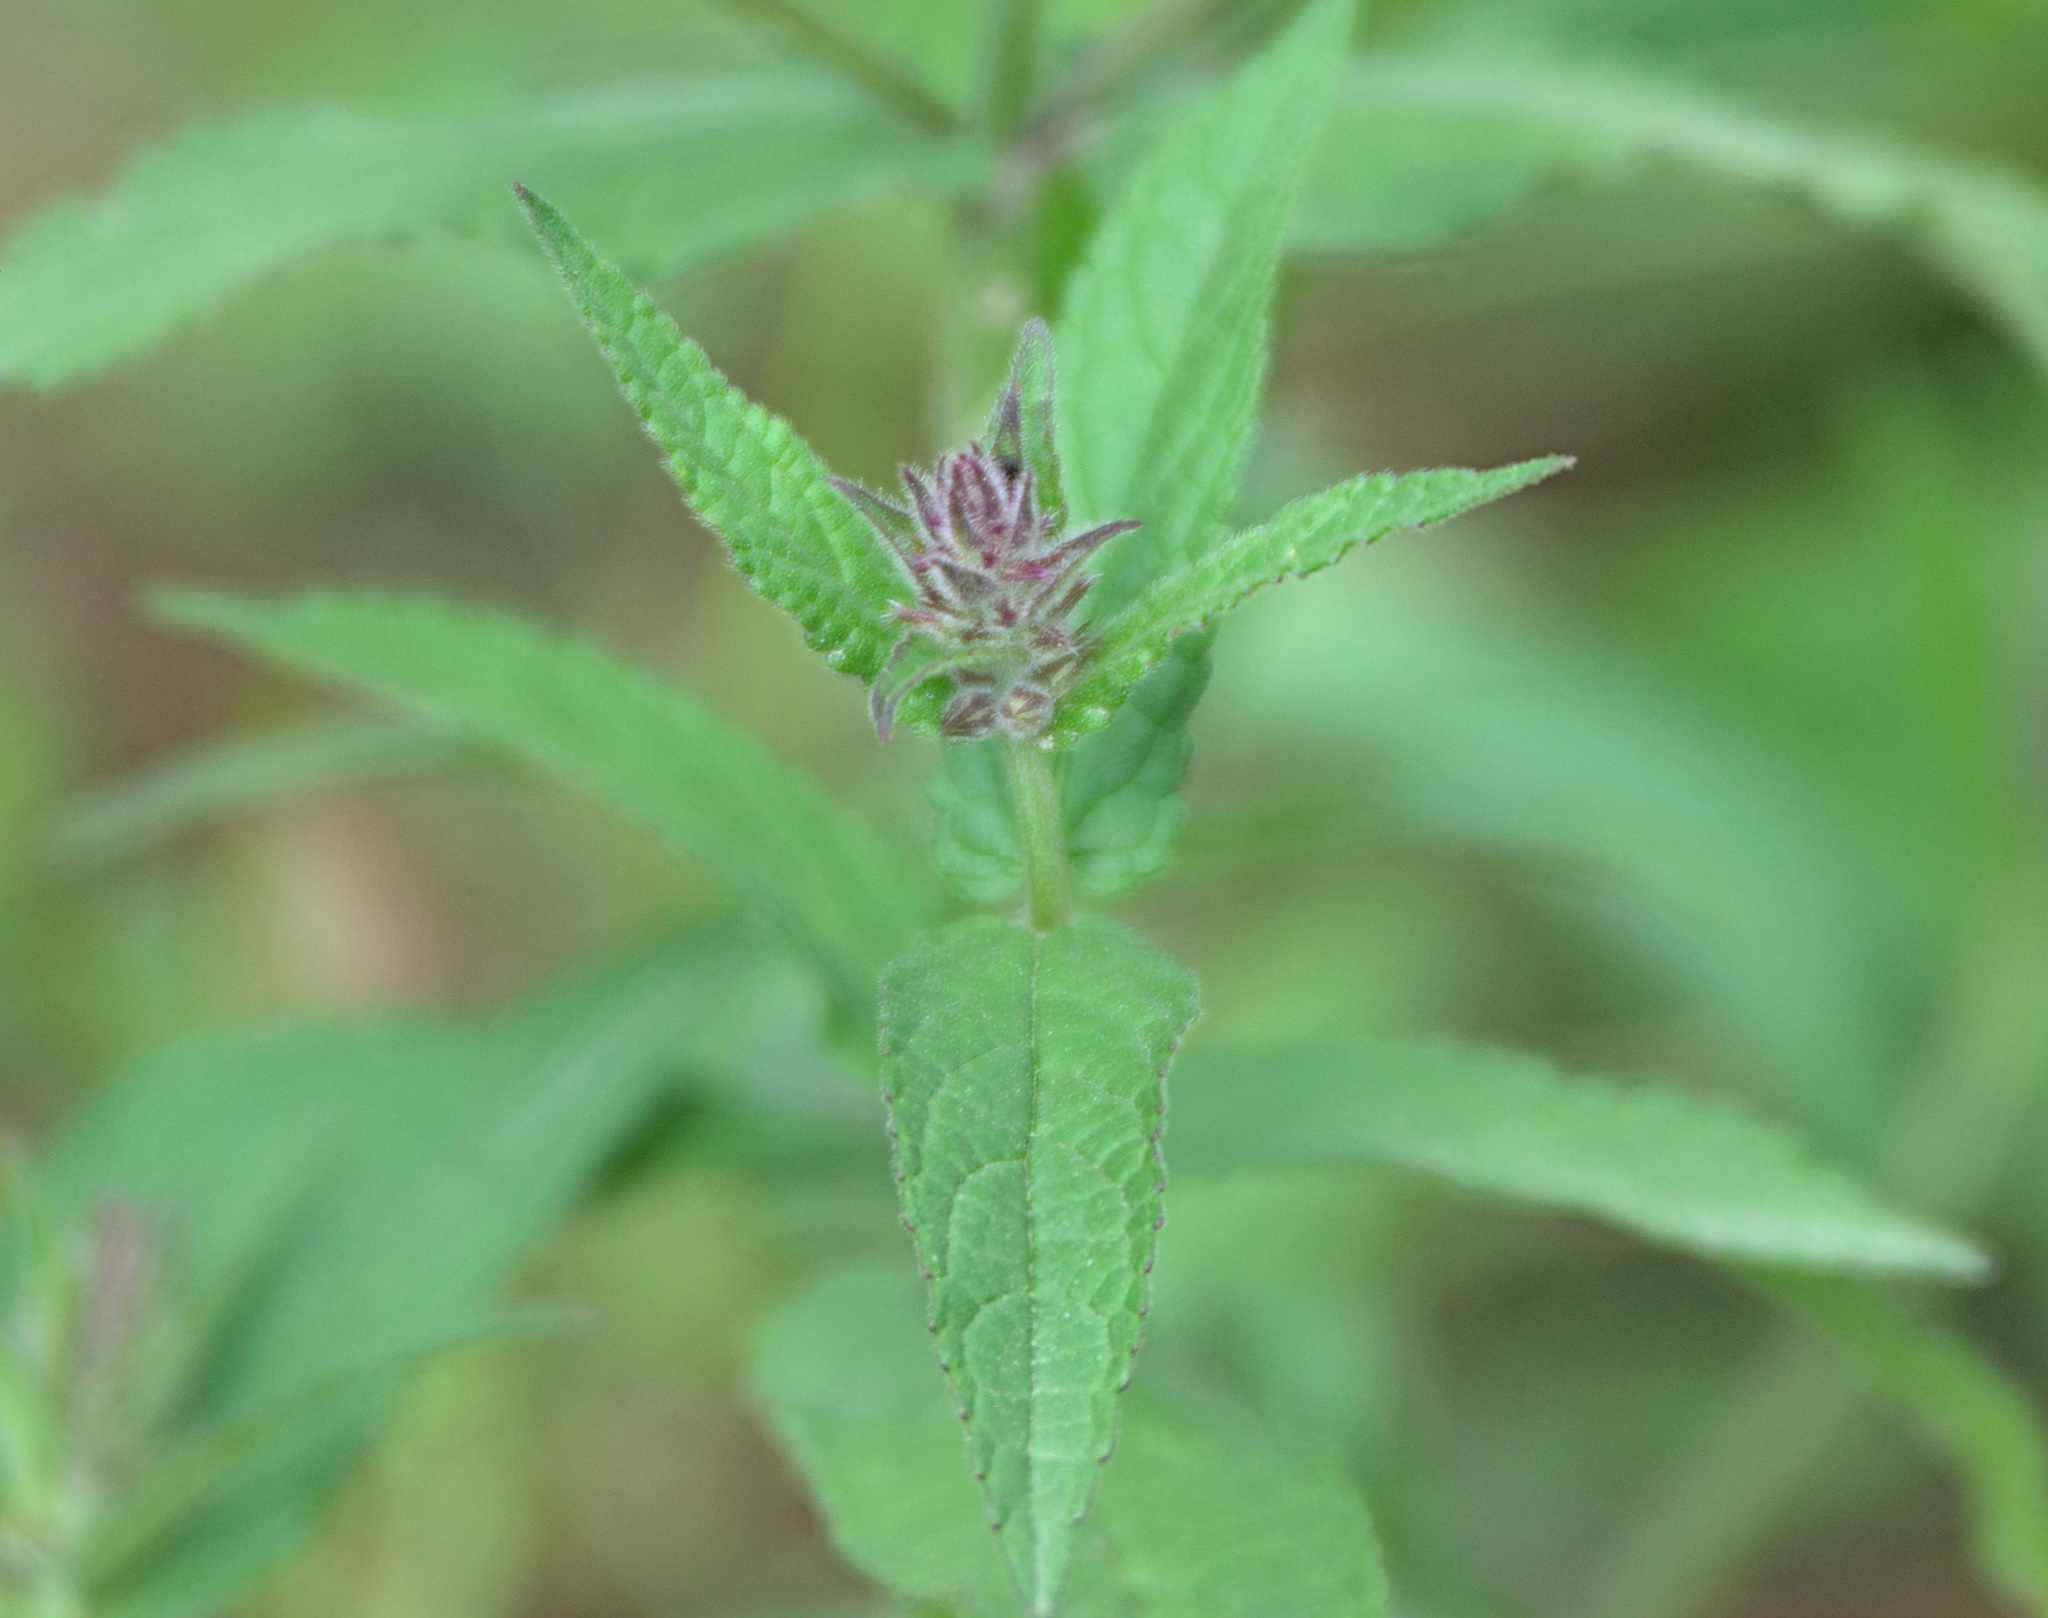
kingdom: Plantae
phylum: Tracheophyta
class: Magnoliopsida
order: Lamiales
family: Lamiaceae
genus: Stachys
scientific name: Stachys palustris
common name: Marsh woundwort
